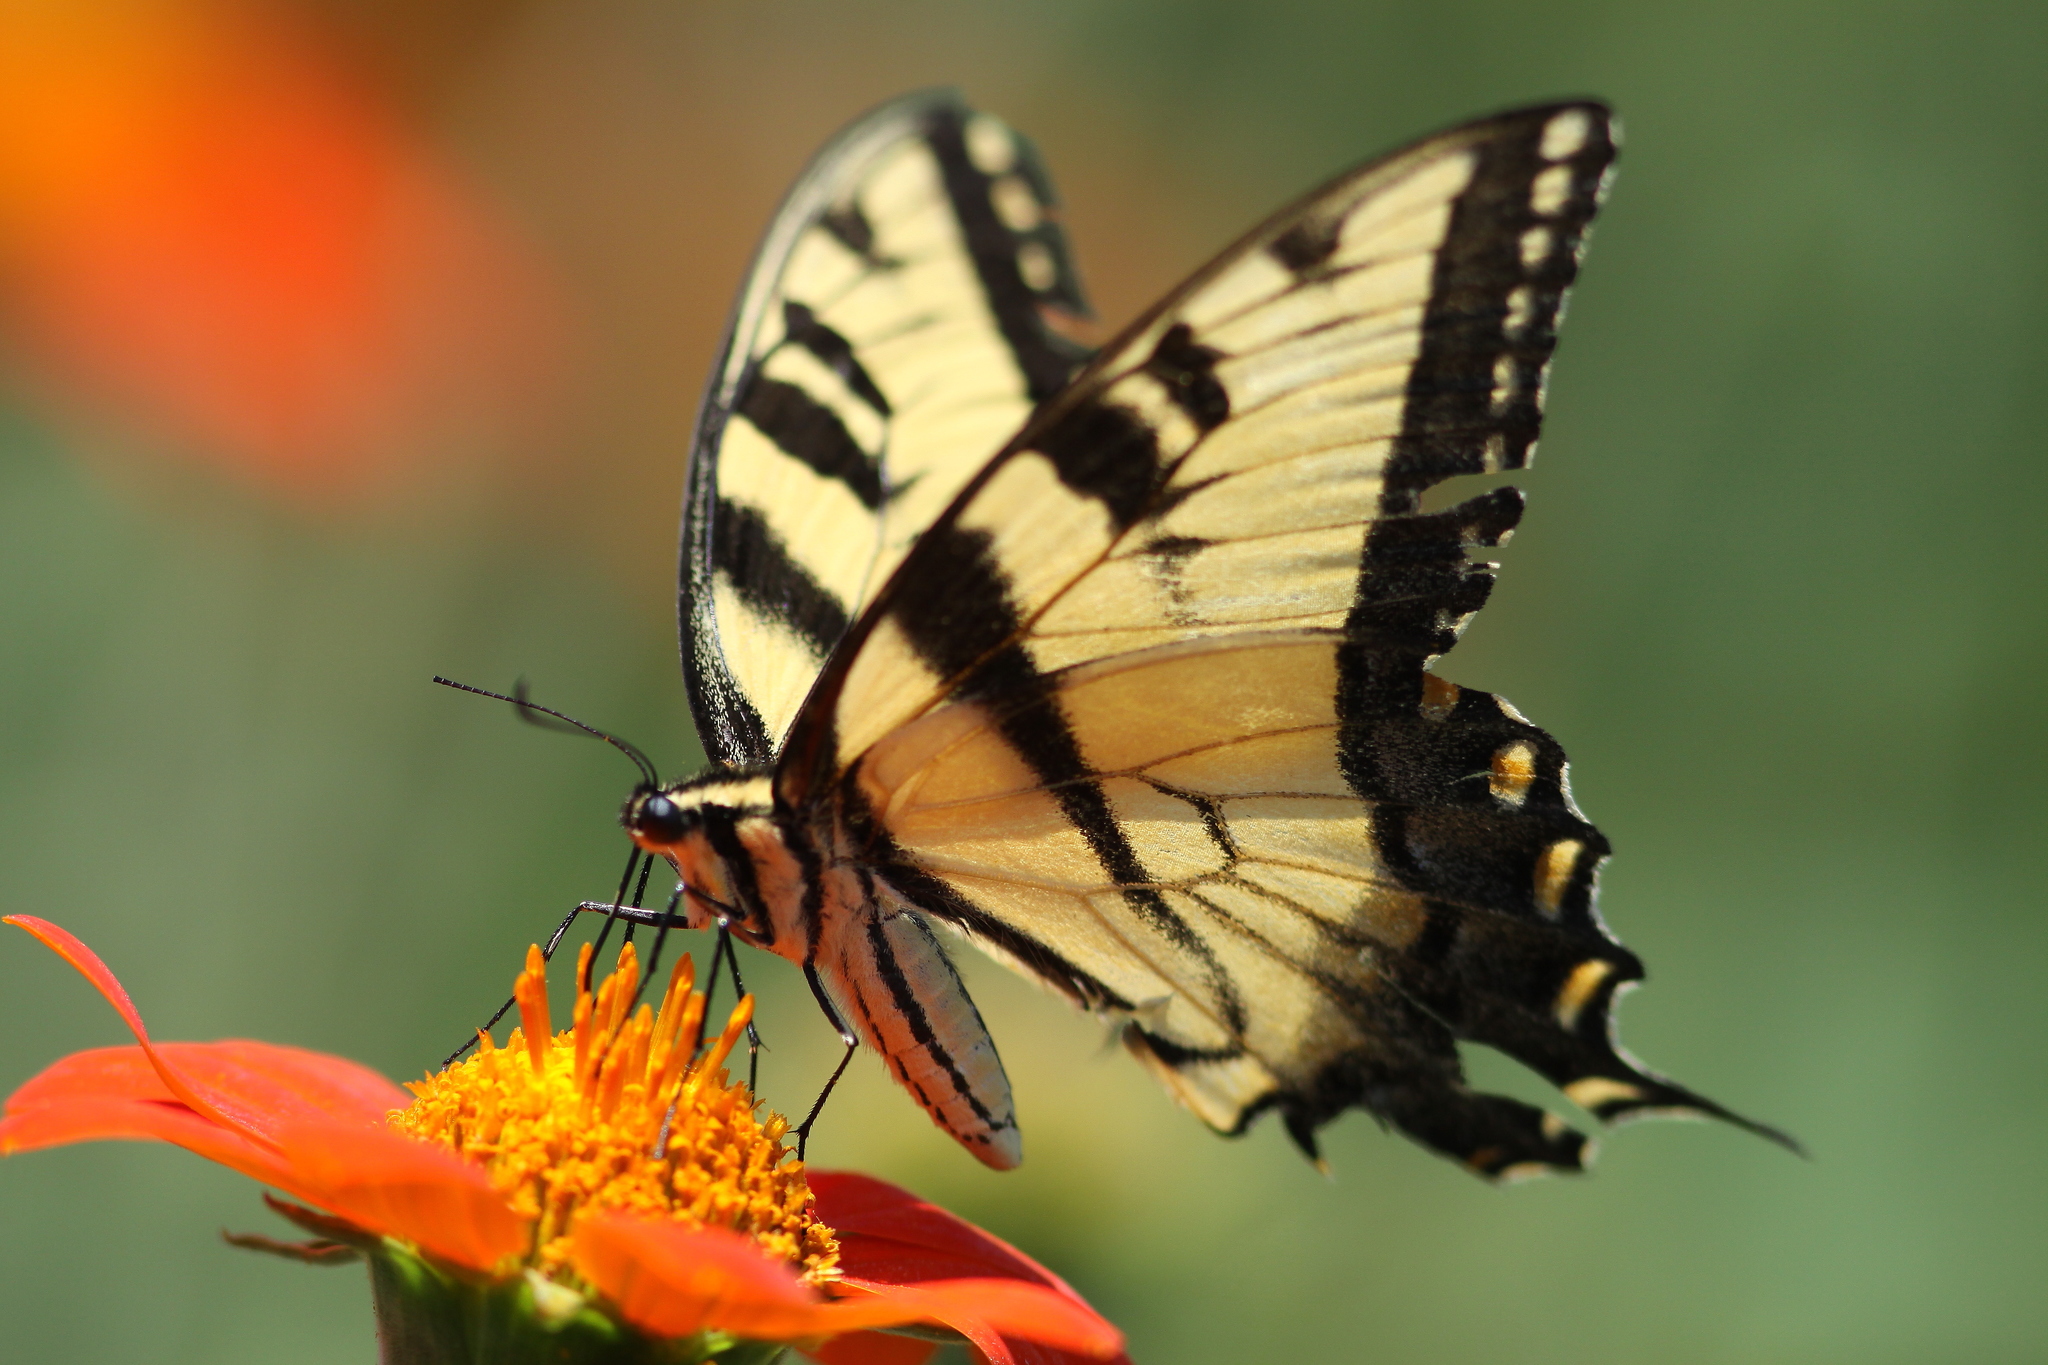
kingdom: Animalia
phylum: Arthropoda
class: Insecta
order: Lepidoptera
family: Papilionidae
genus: Papilio
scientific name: Papilio glaucus
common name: Tiger swallowtail
